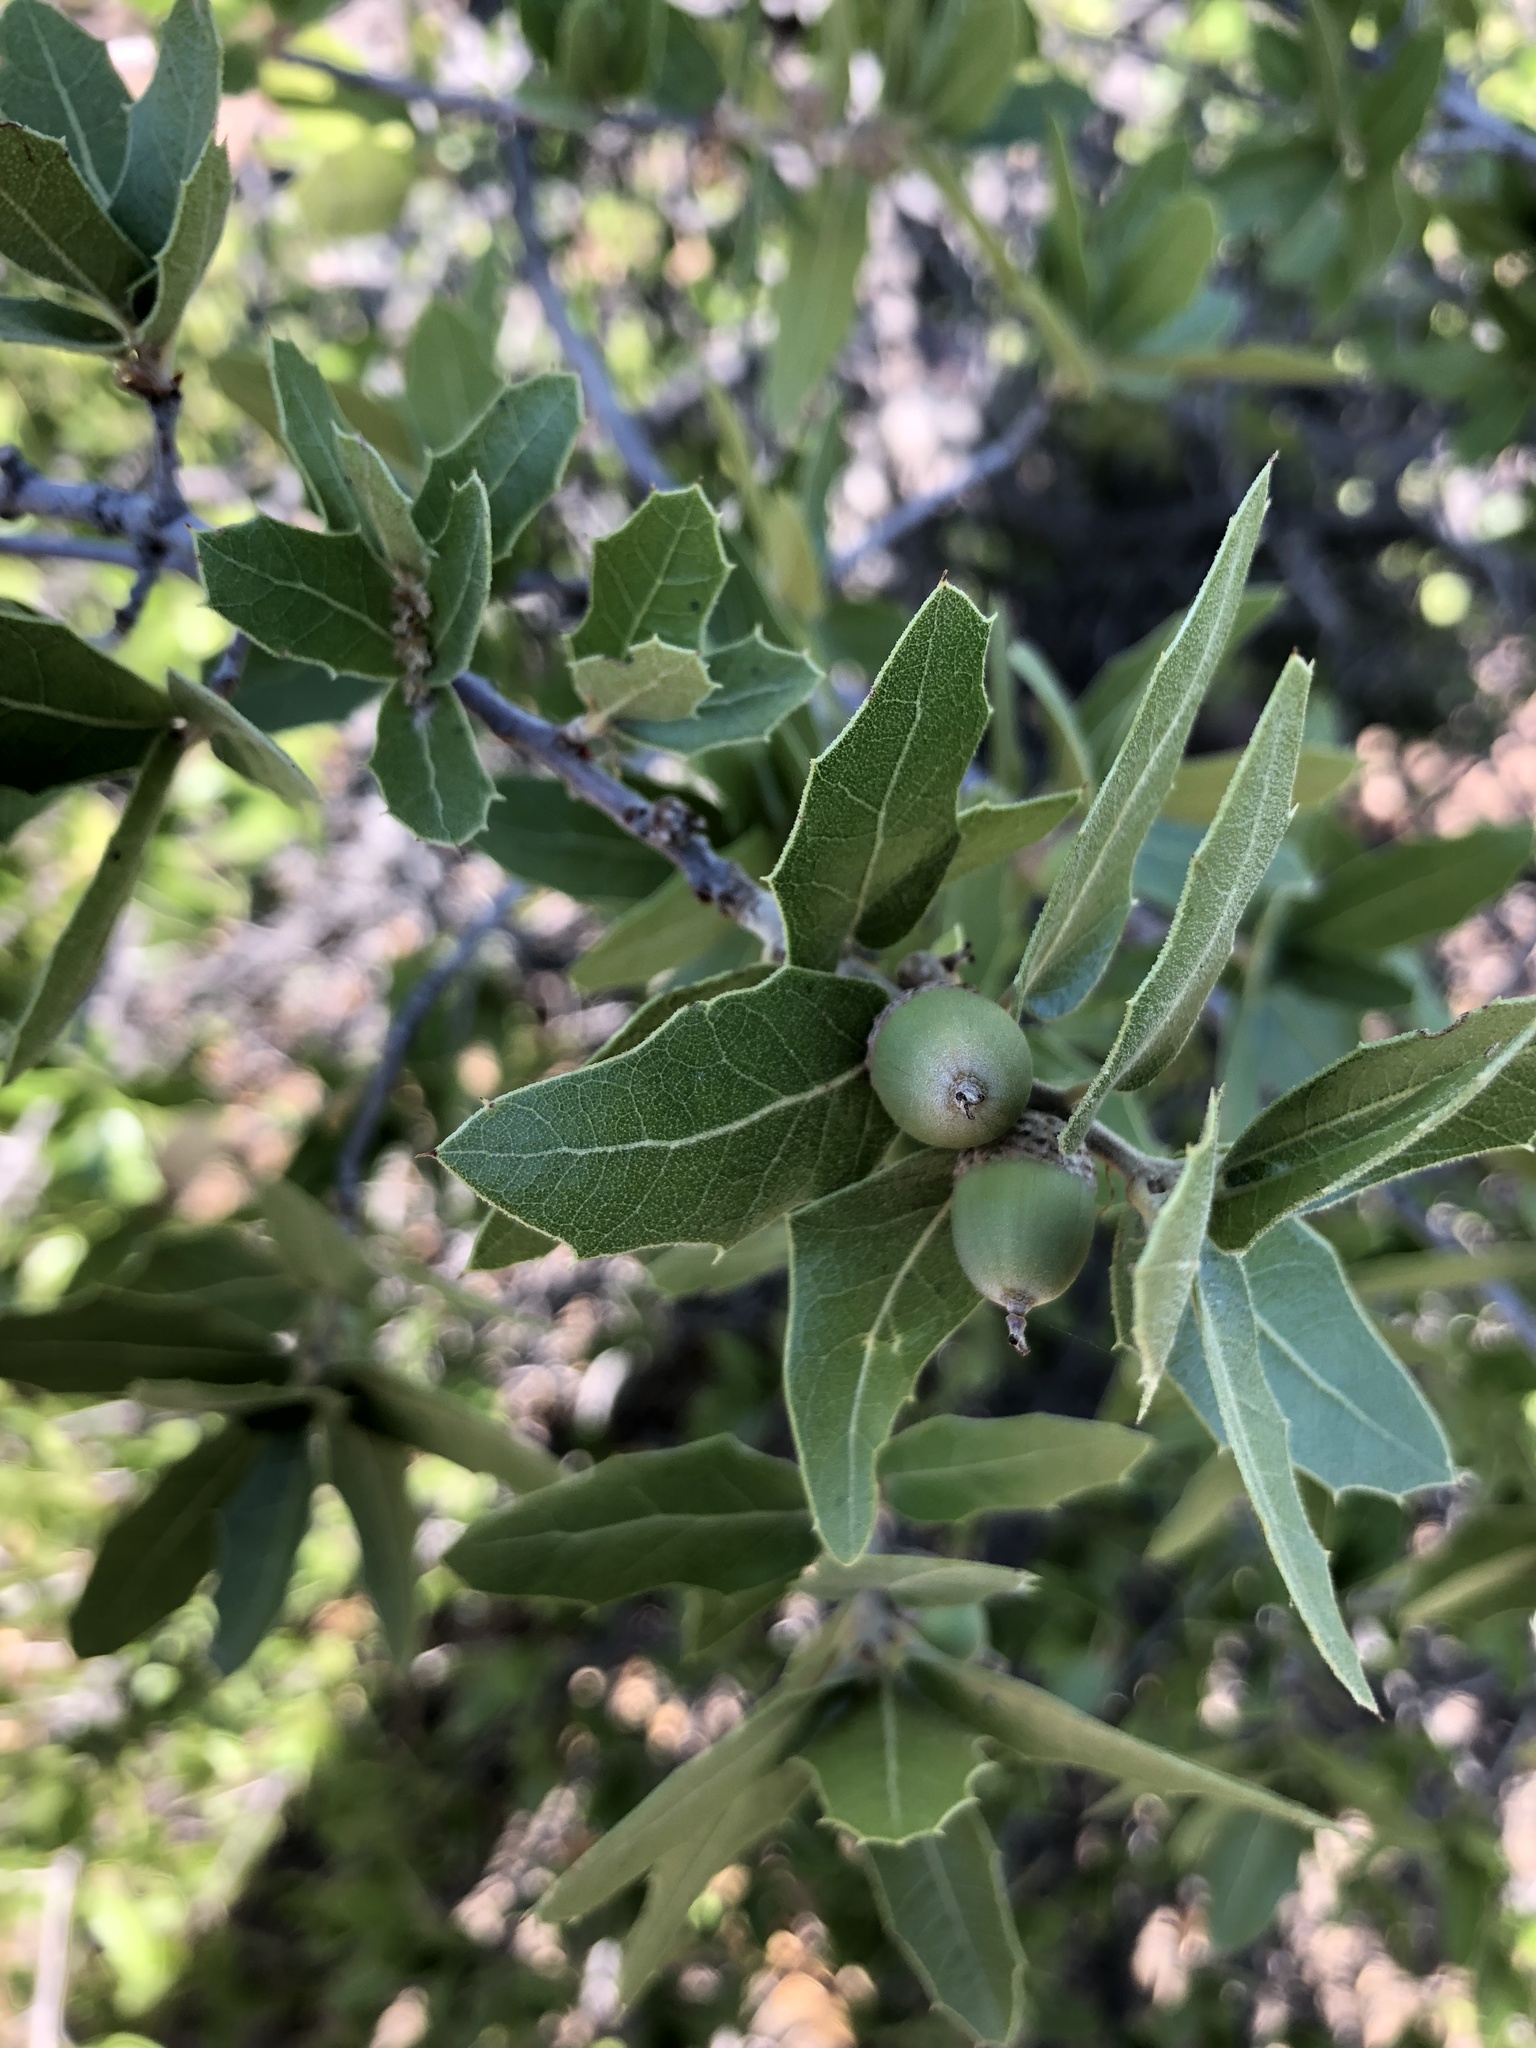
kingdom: Plantae
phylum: Tracheophyta
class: Magnoliopsida
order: Fagales
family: Fagaceae
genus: Quercus
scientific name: Quercus emoryi
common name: Emory oak
